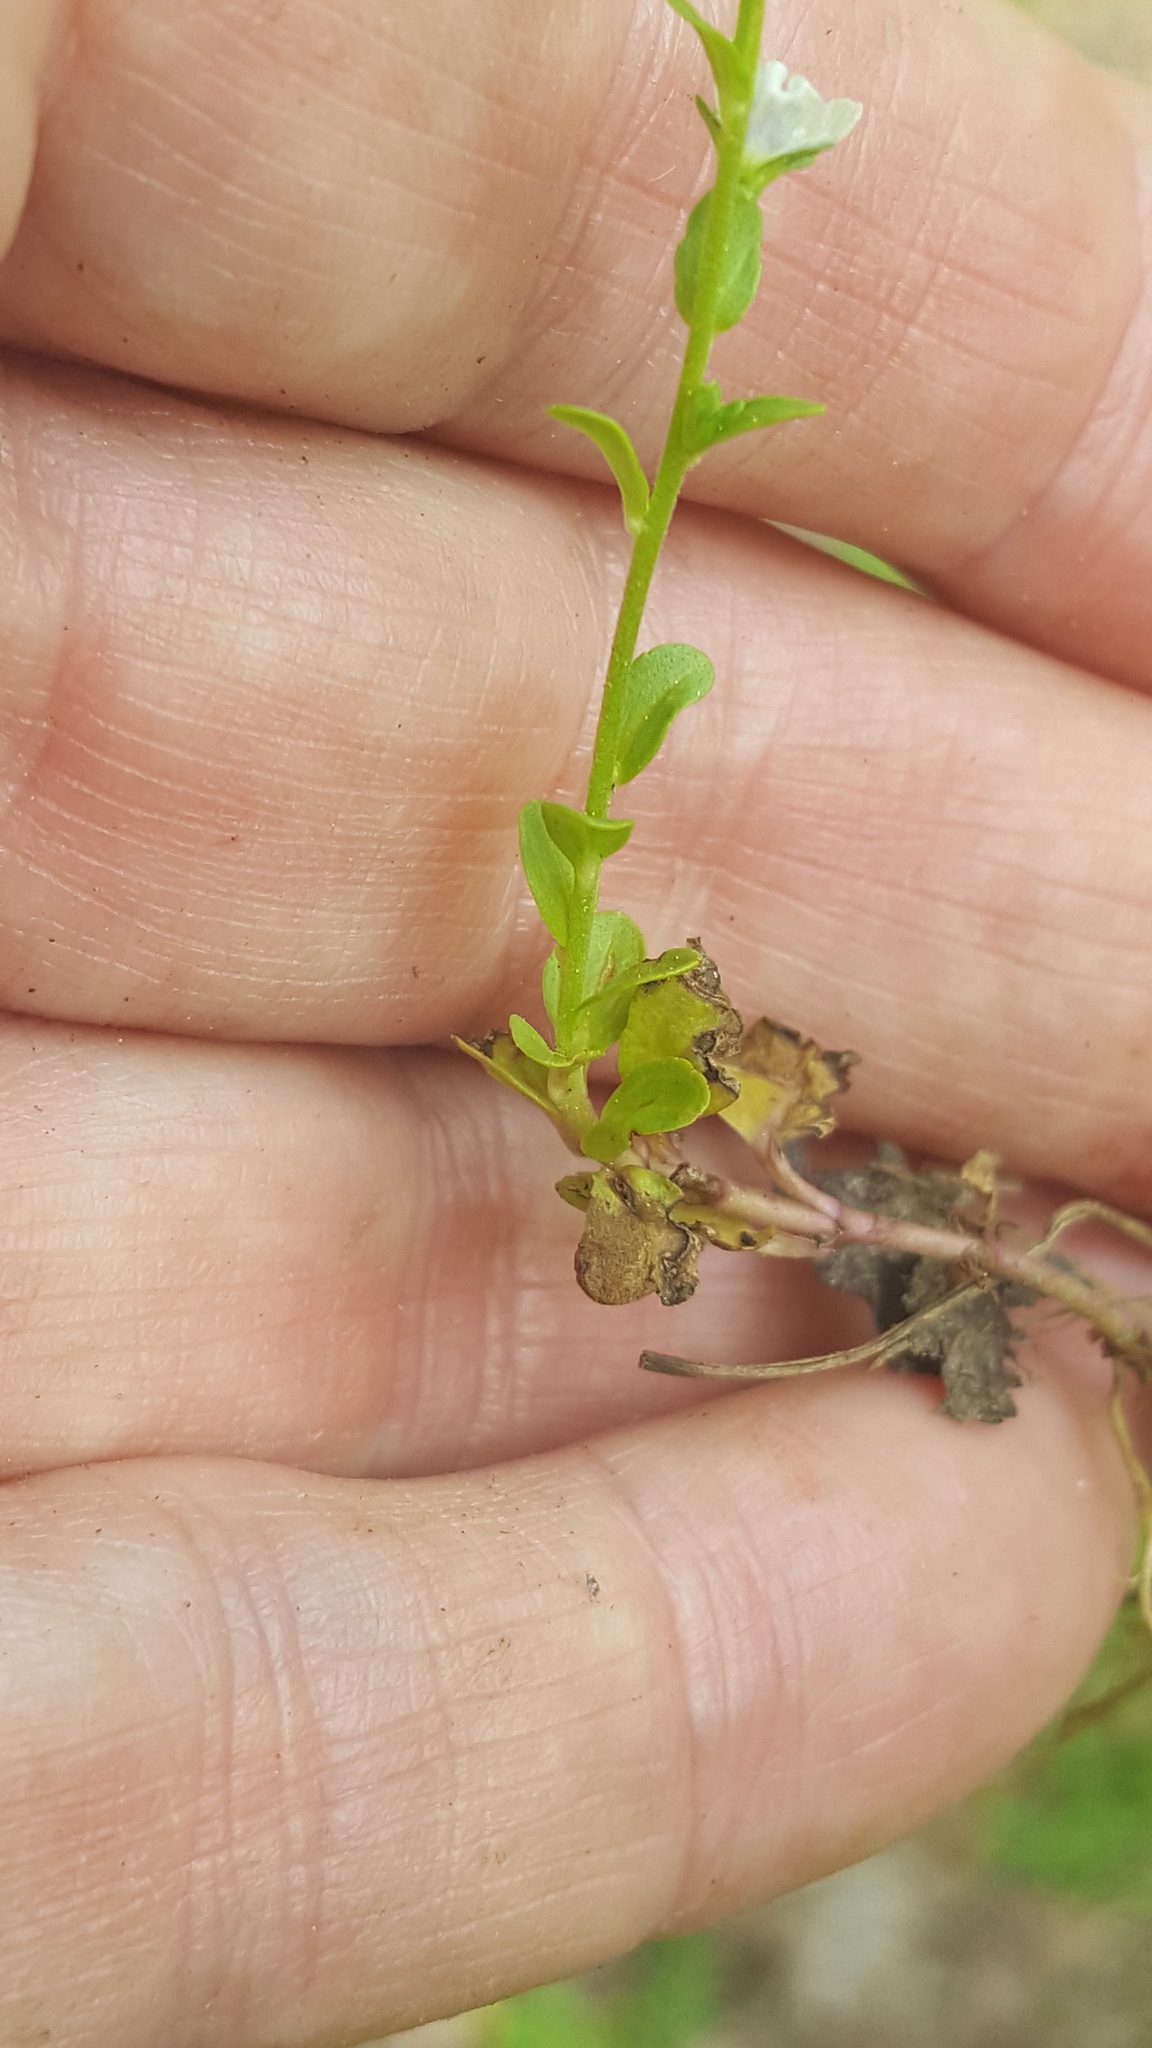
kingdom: Plantae
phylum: Tracheophyta
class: Magnoliopsida
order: Lamiales
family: Plantaginaceae
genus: Veronica
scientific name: Veronica serpyllifolia
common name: Thyme-leaved speedwell
